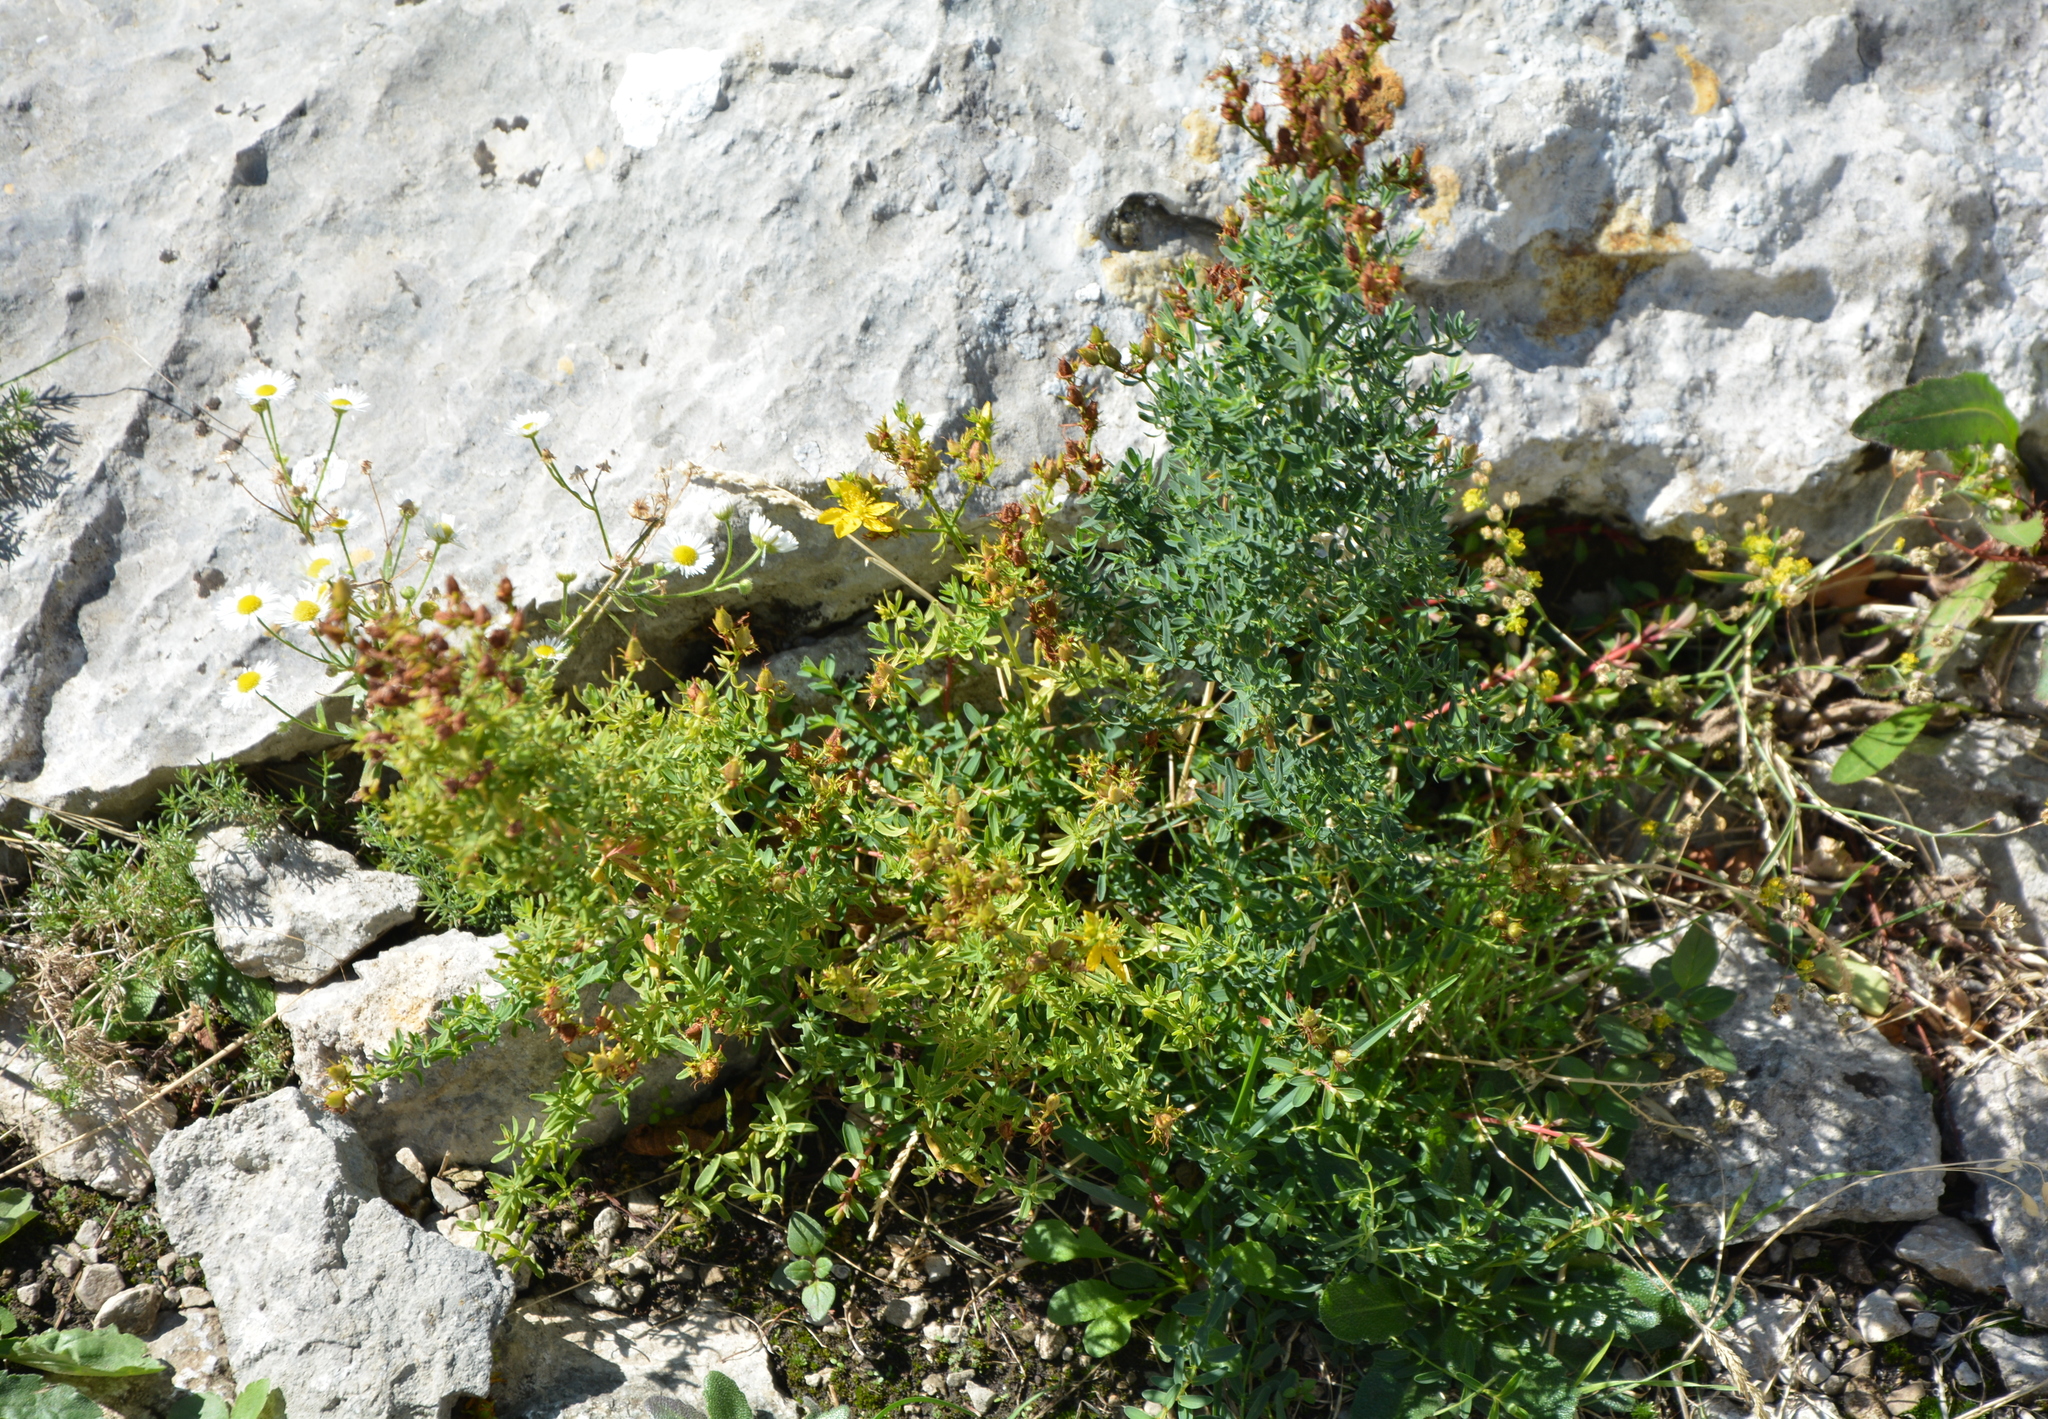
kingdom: Plantae
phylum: Tracheophyta
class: Magnoliopsida
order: Malpighiales
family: Hypericaceae
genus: Hypericum
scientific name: Hypericum perforatum
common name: Common st. johnswort
